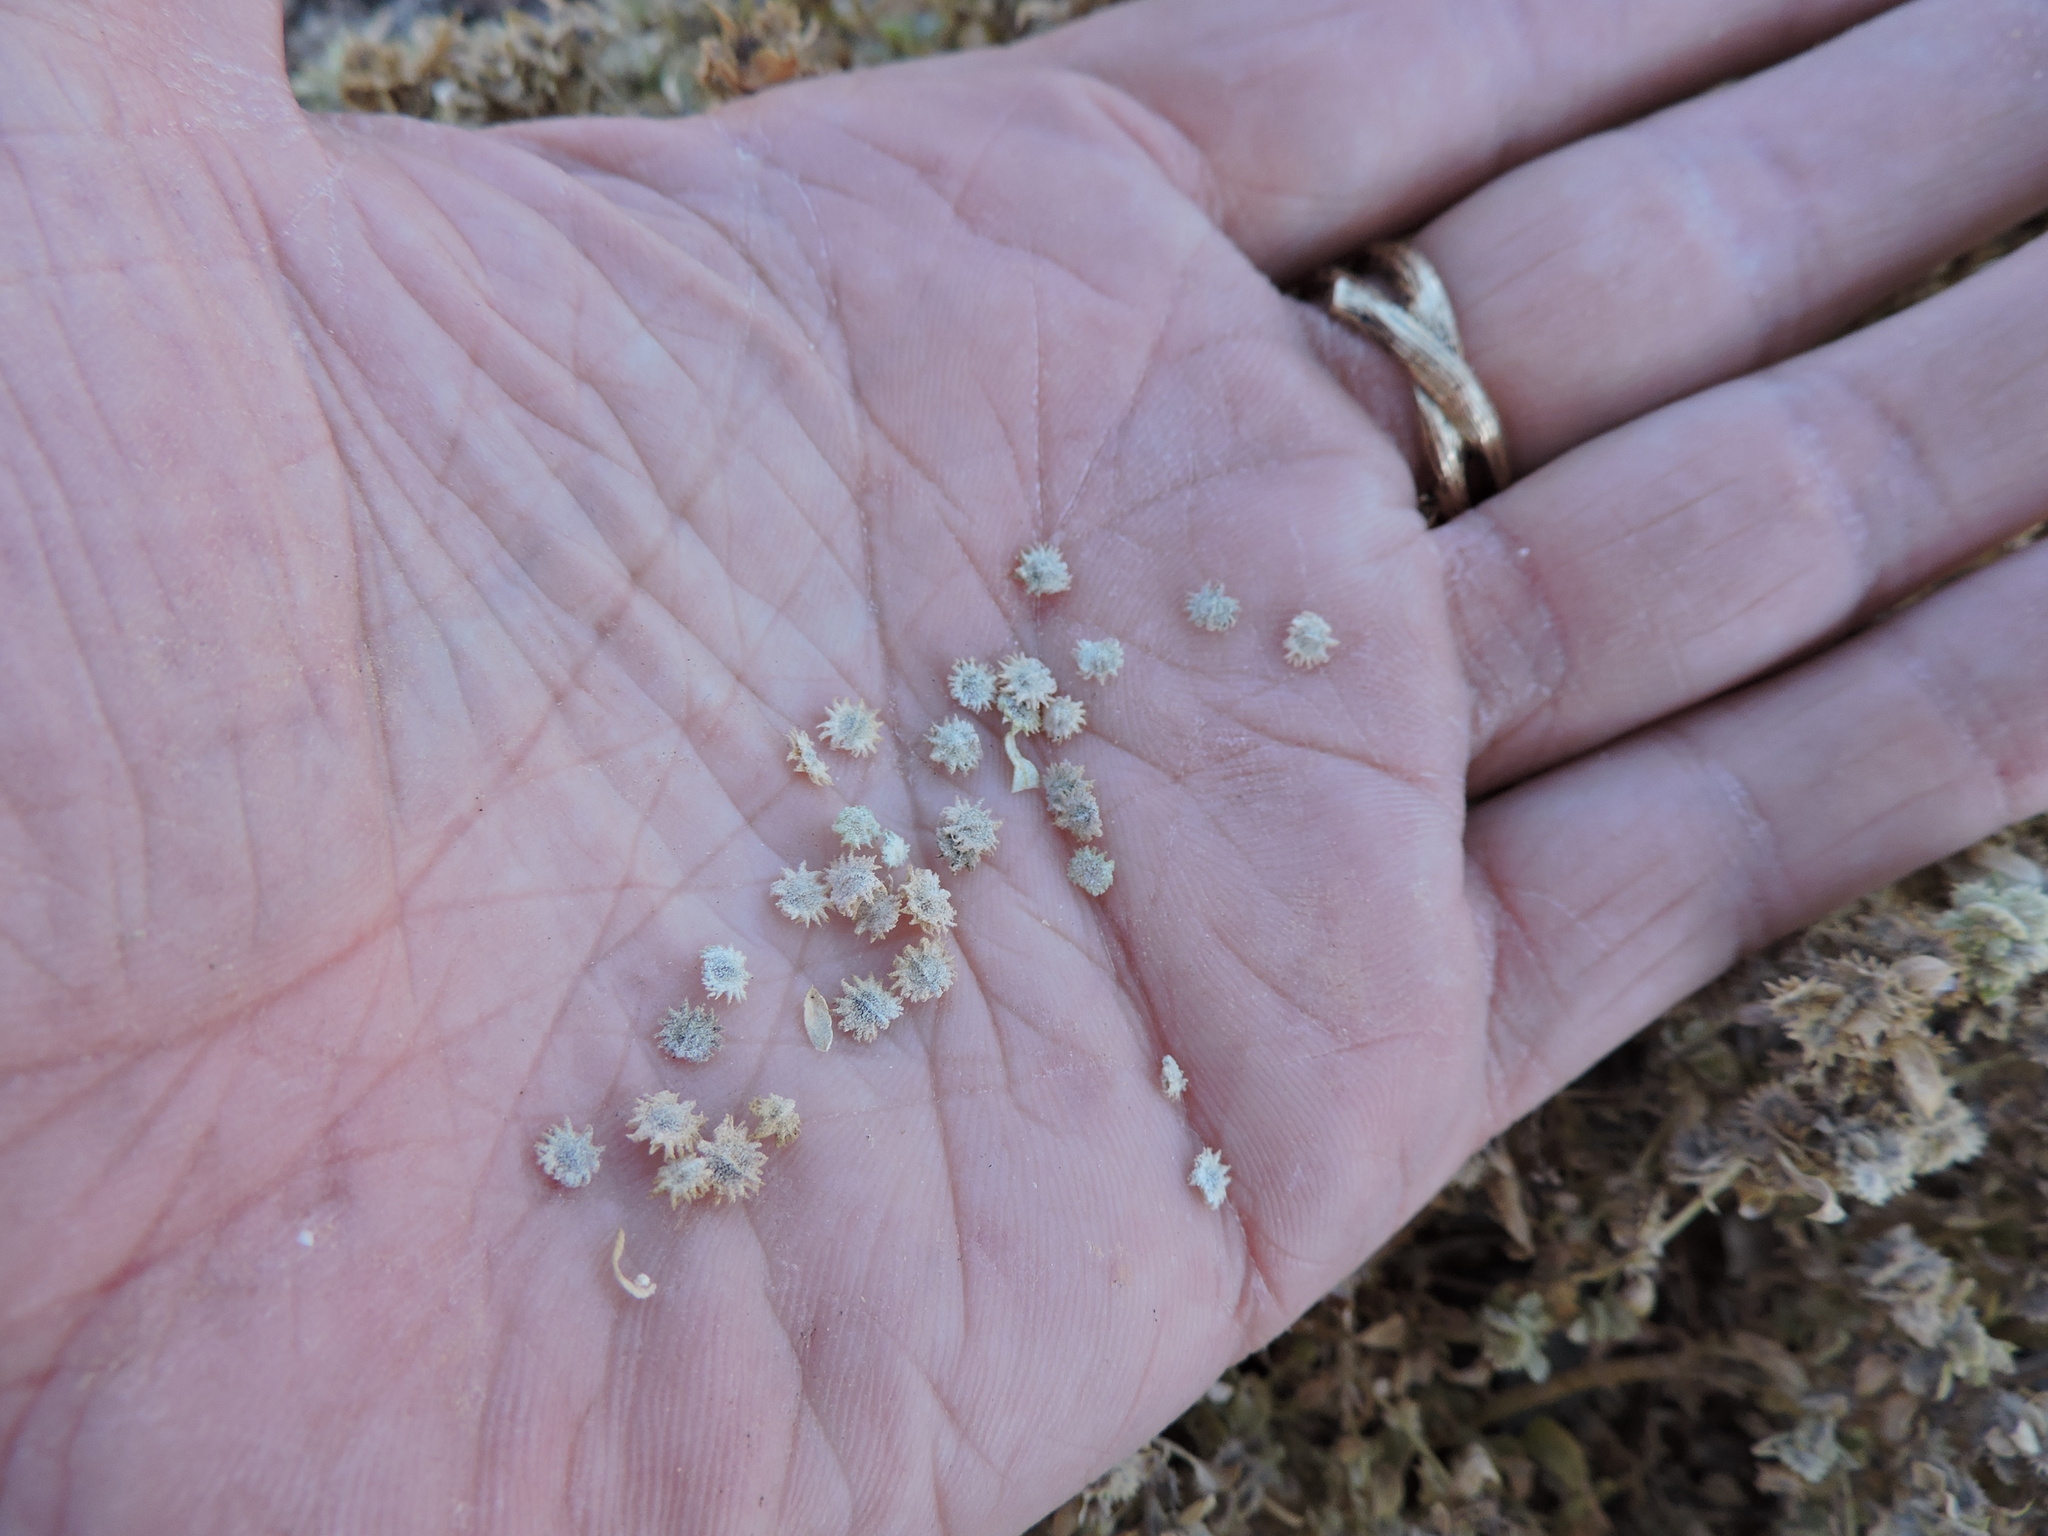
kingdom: Plantae
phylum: Tracheophyta
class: Magnoliopsida
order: Caryophyllales
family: Amaranthaceae
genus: Atriplex
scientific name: Atriplex elegans
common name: Wheelscale orach
